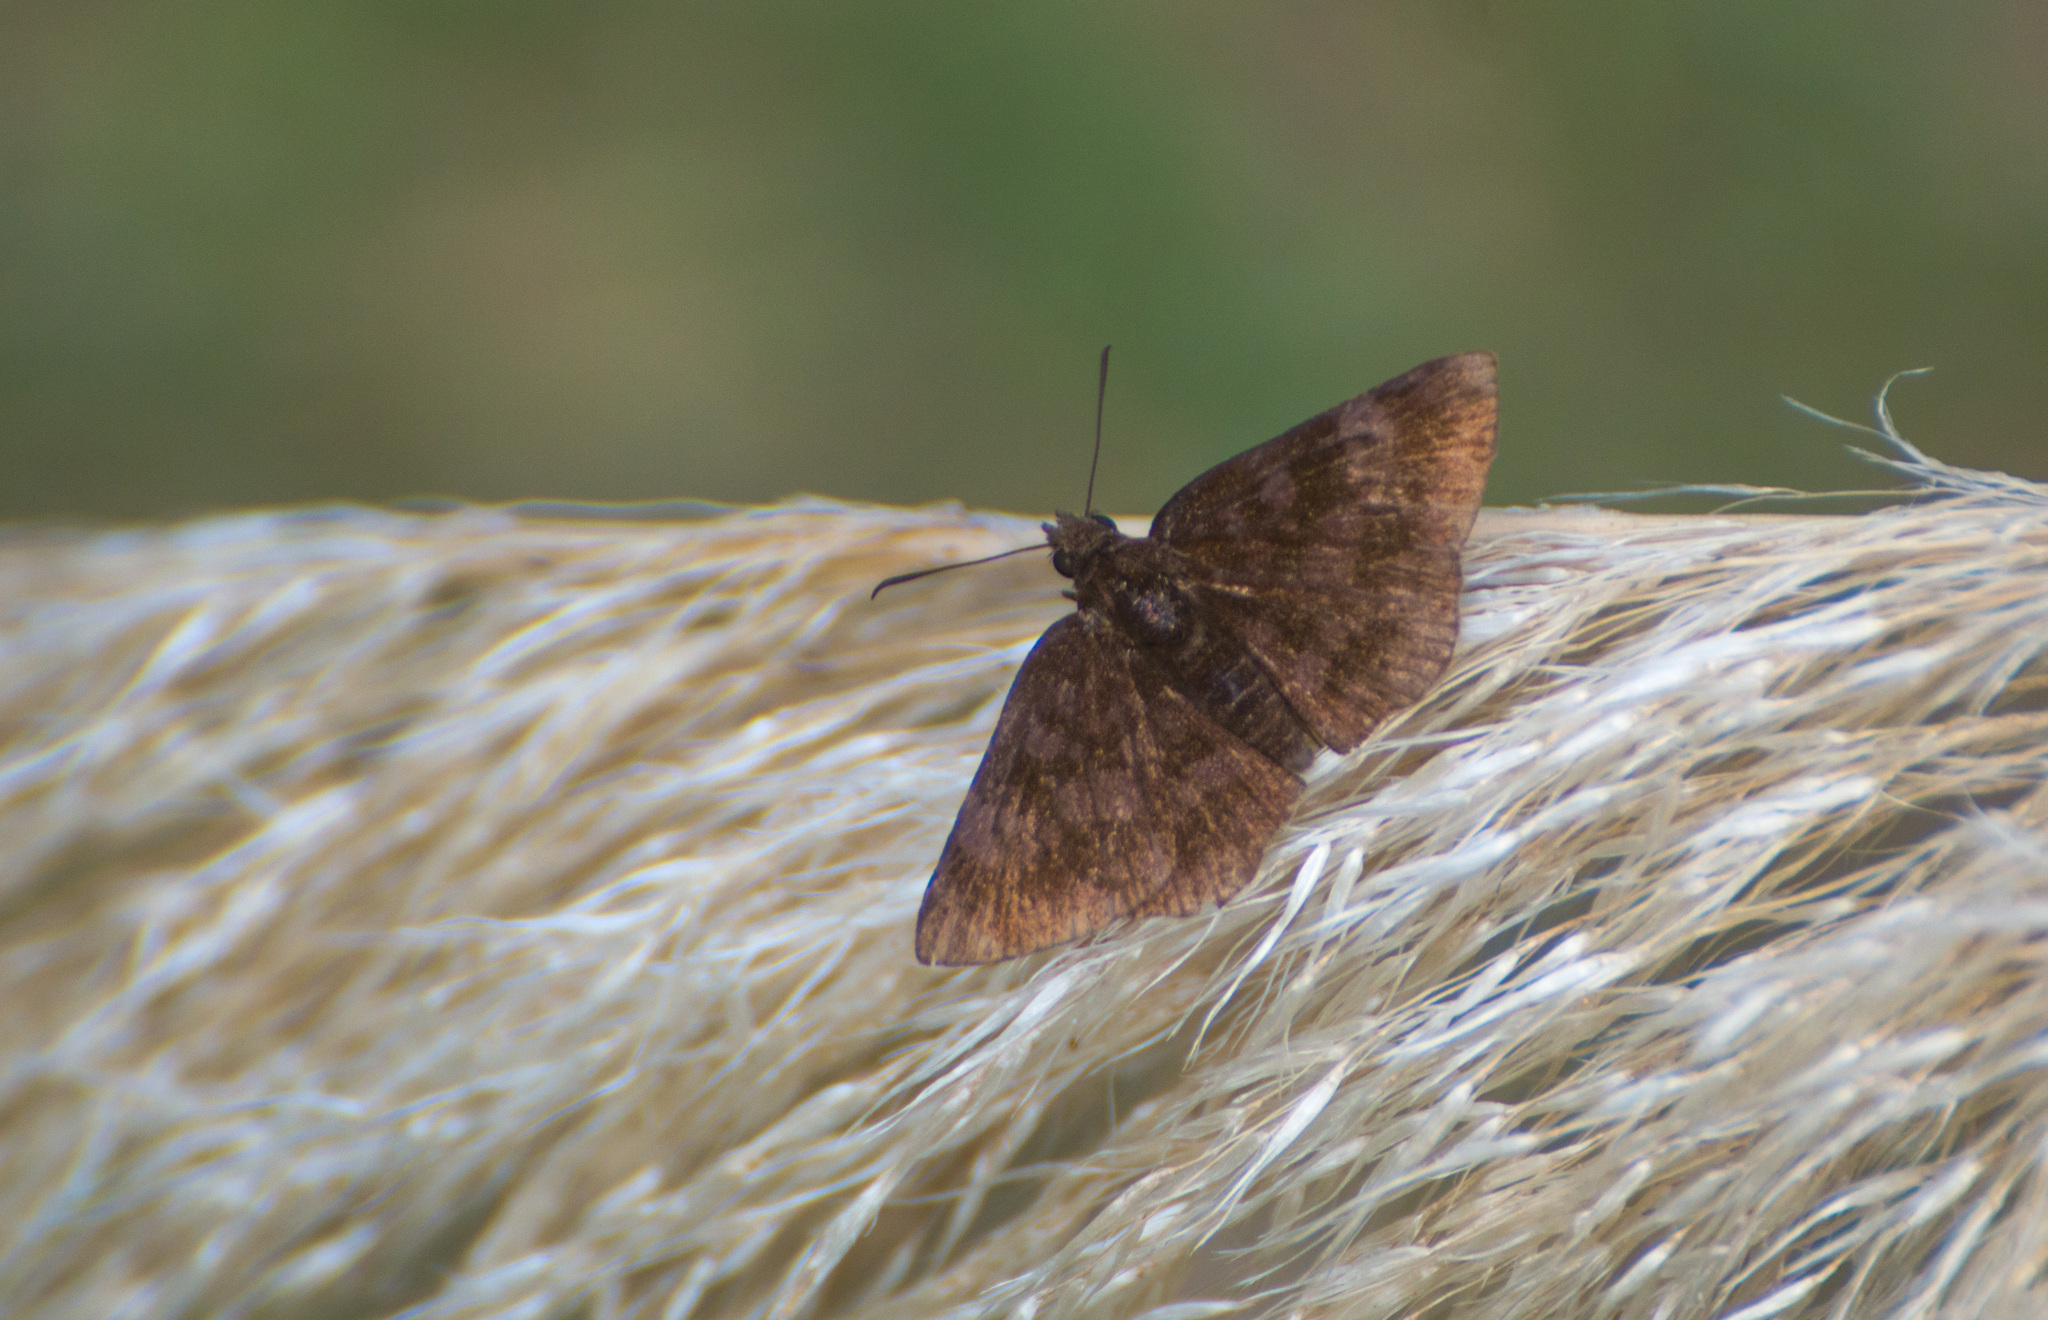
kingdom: Animalia
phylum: Arthropoda
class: Insecta
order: Lepidoptera
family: Hesperiidae
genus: Viola
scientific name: Viola minor
